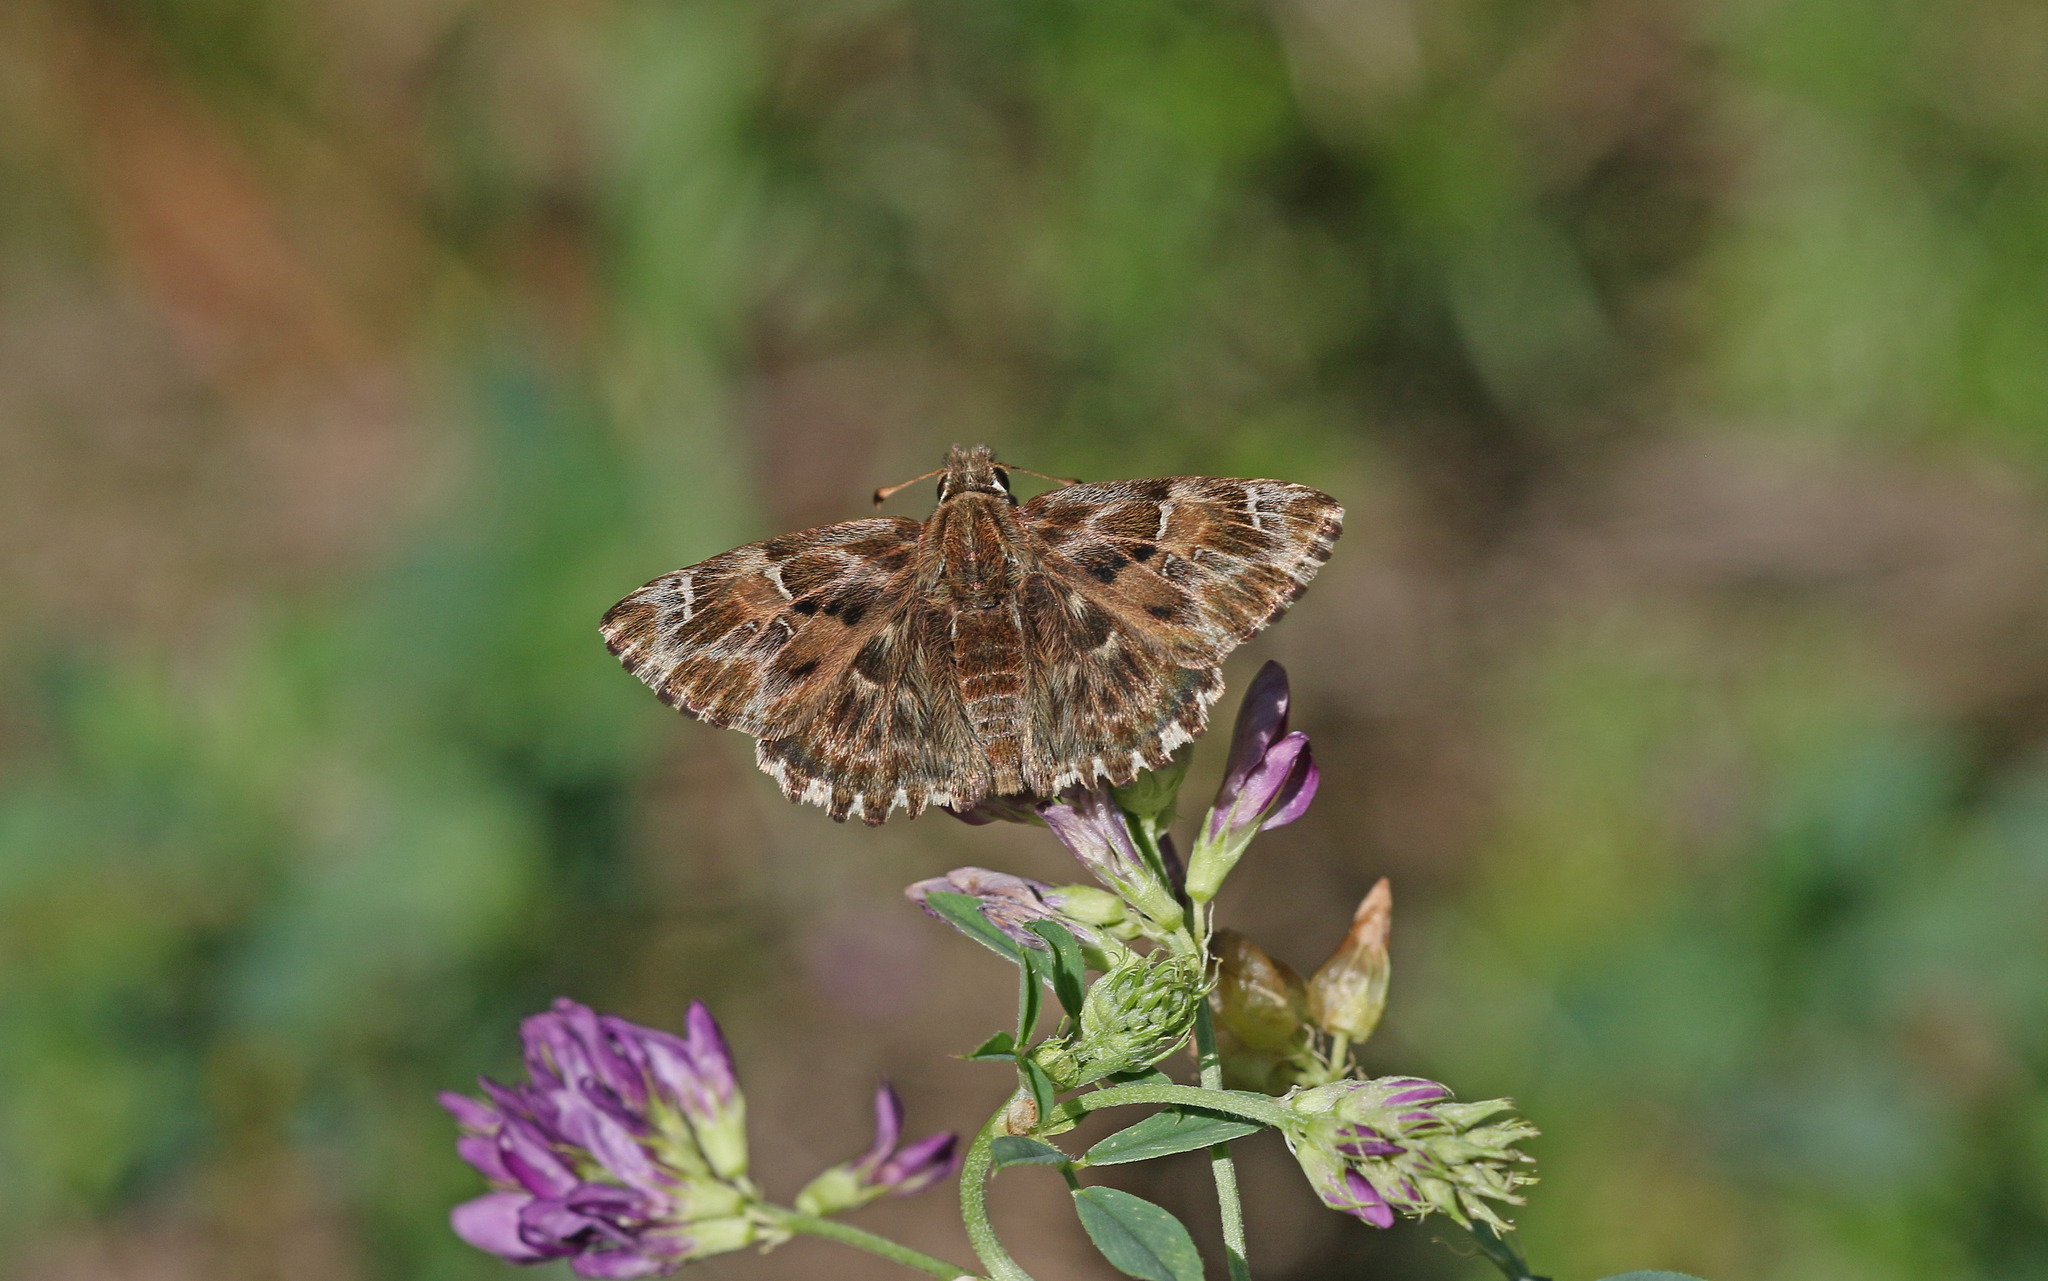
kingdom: Animalia
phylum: Arthropoda
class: Insecta
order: Lepidoptera
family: Hesperiidae
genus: Carcharodus
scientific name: Carcharodus alceae
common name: Mallow skipper
